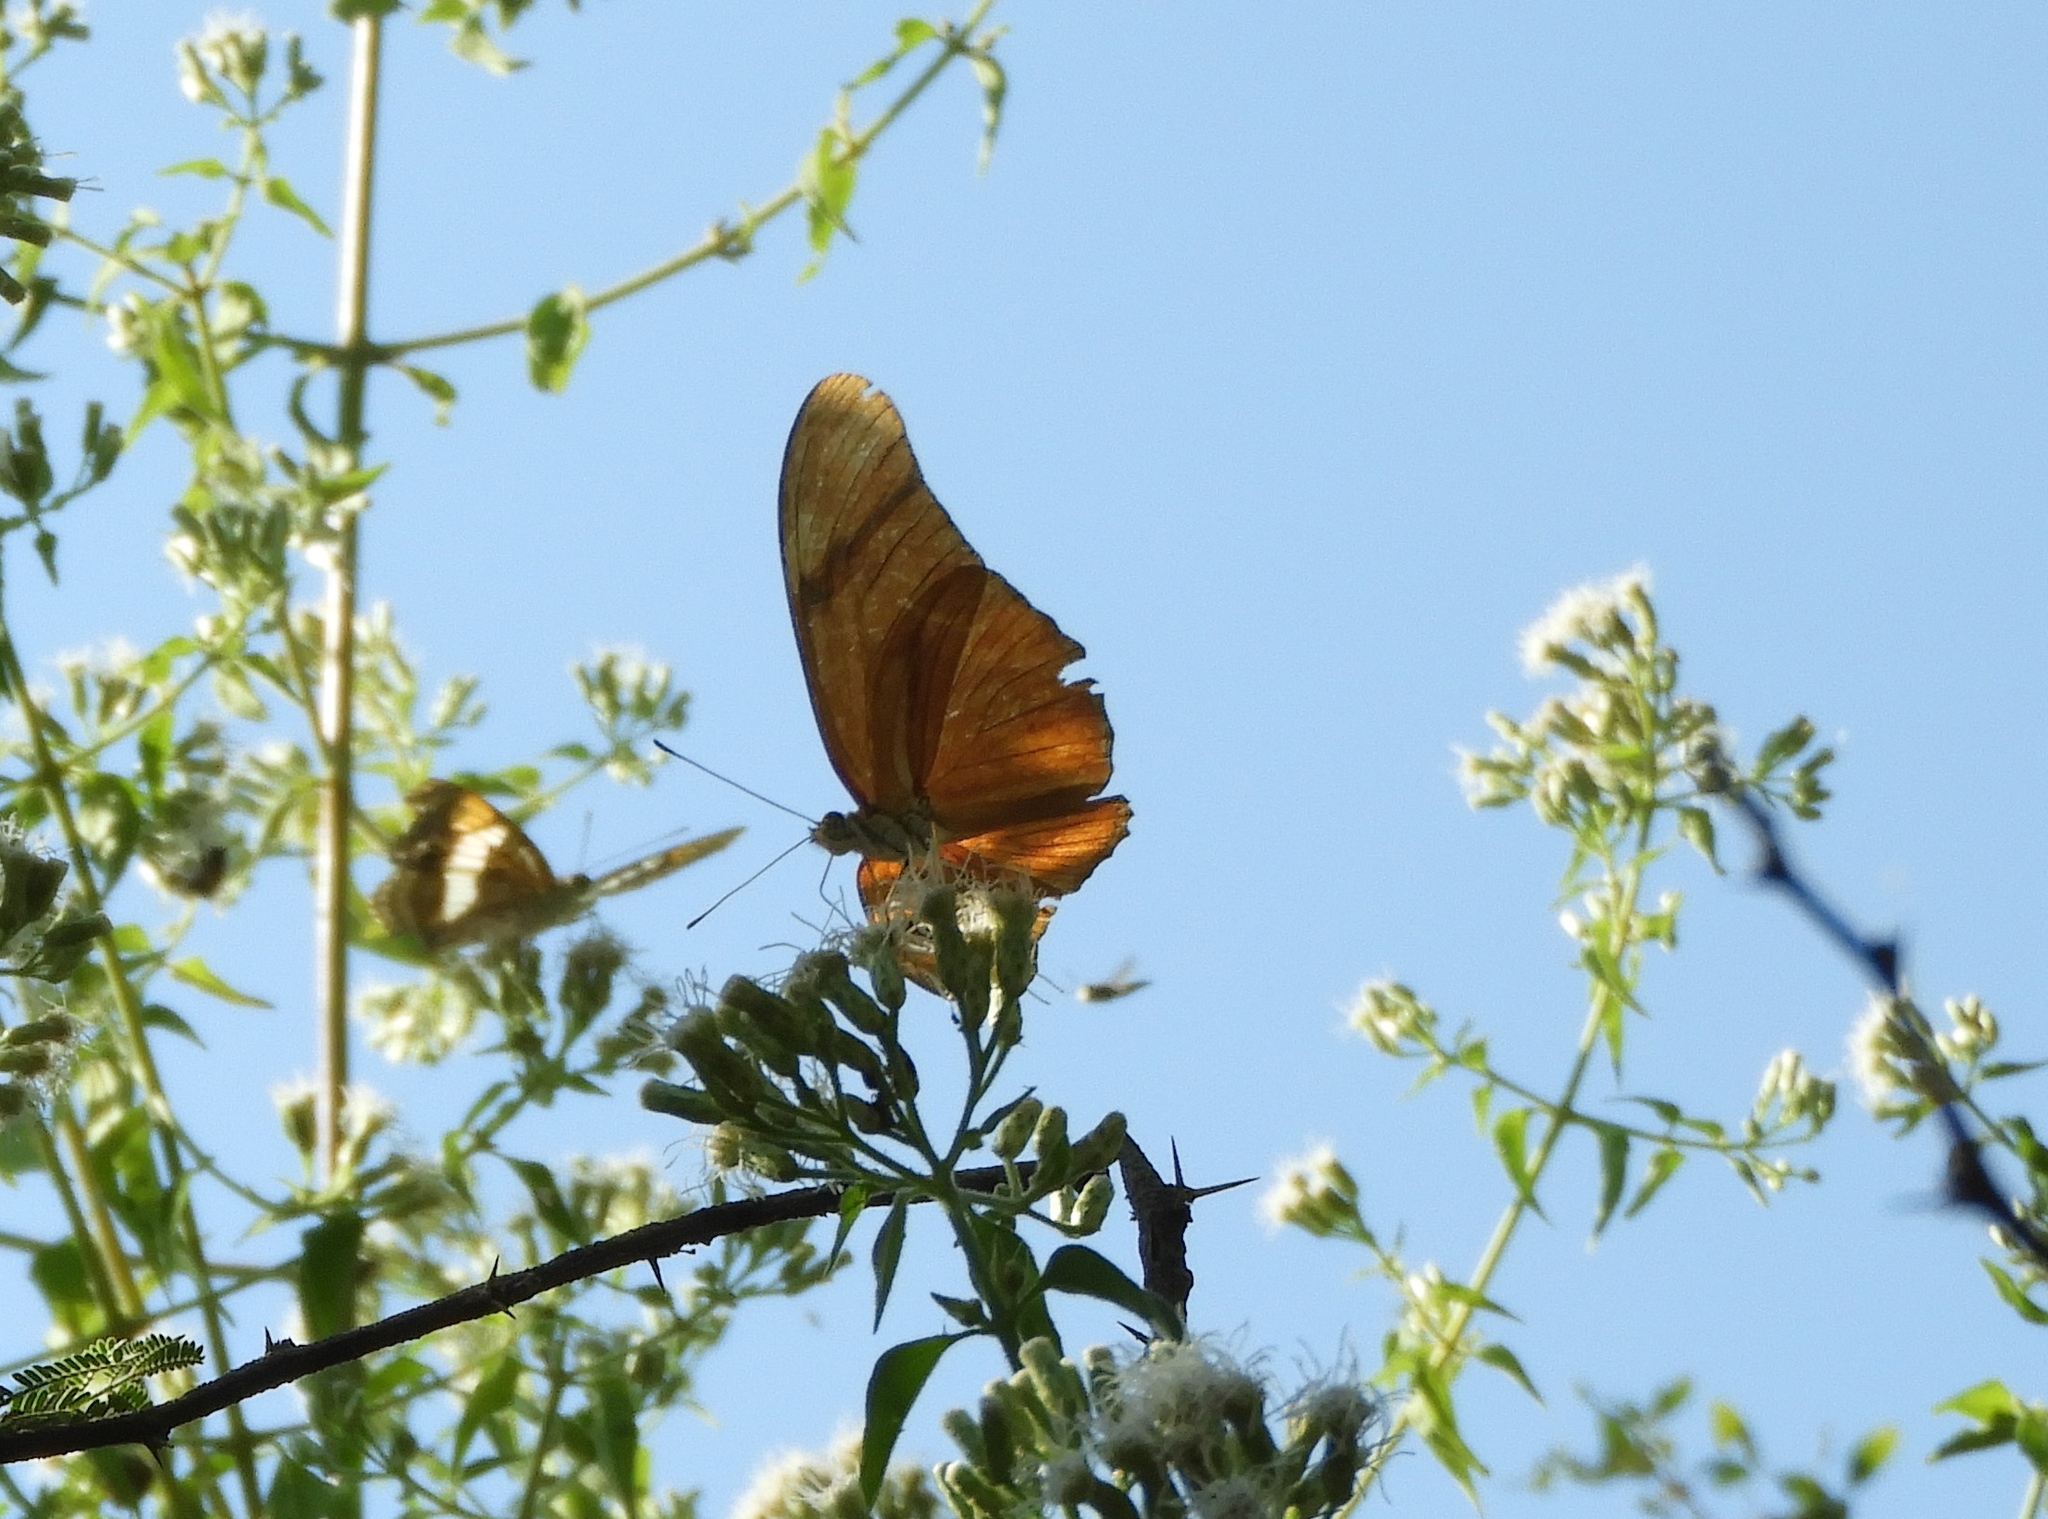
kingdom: Animalia
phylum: Arthropoda
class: Insecta
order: Lepidoptera
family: Nymphalidae
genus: Dryas
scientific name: Dryas iulia
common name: Flambeau
